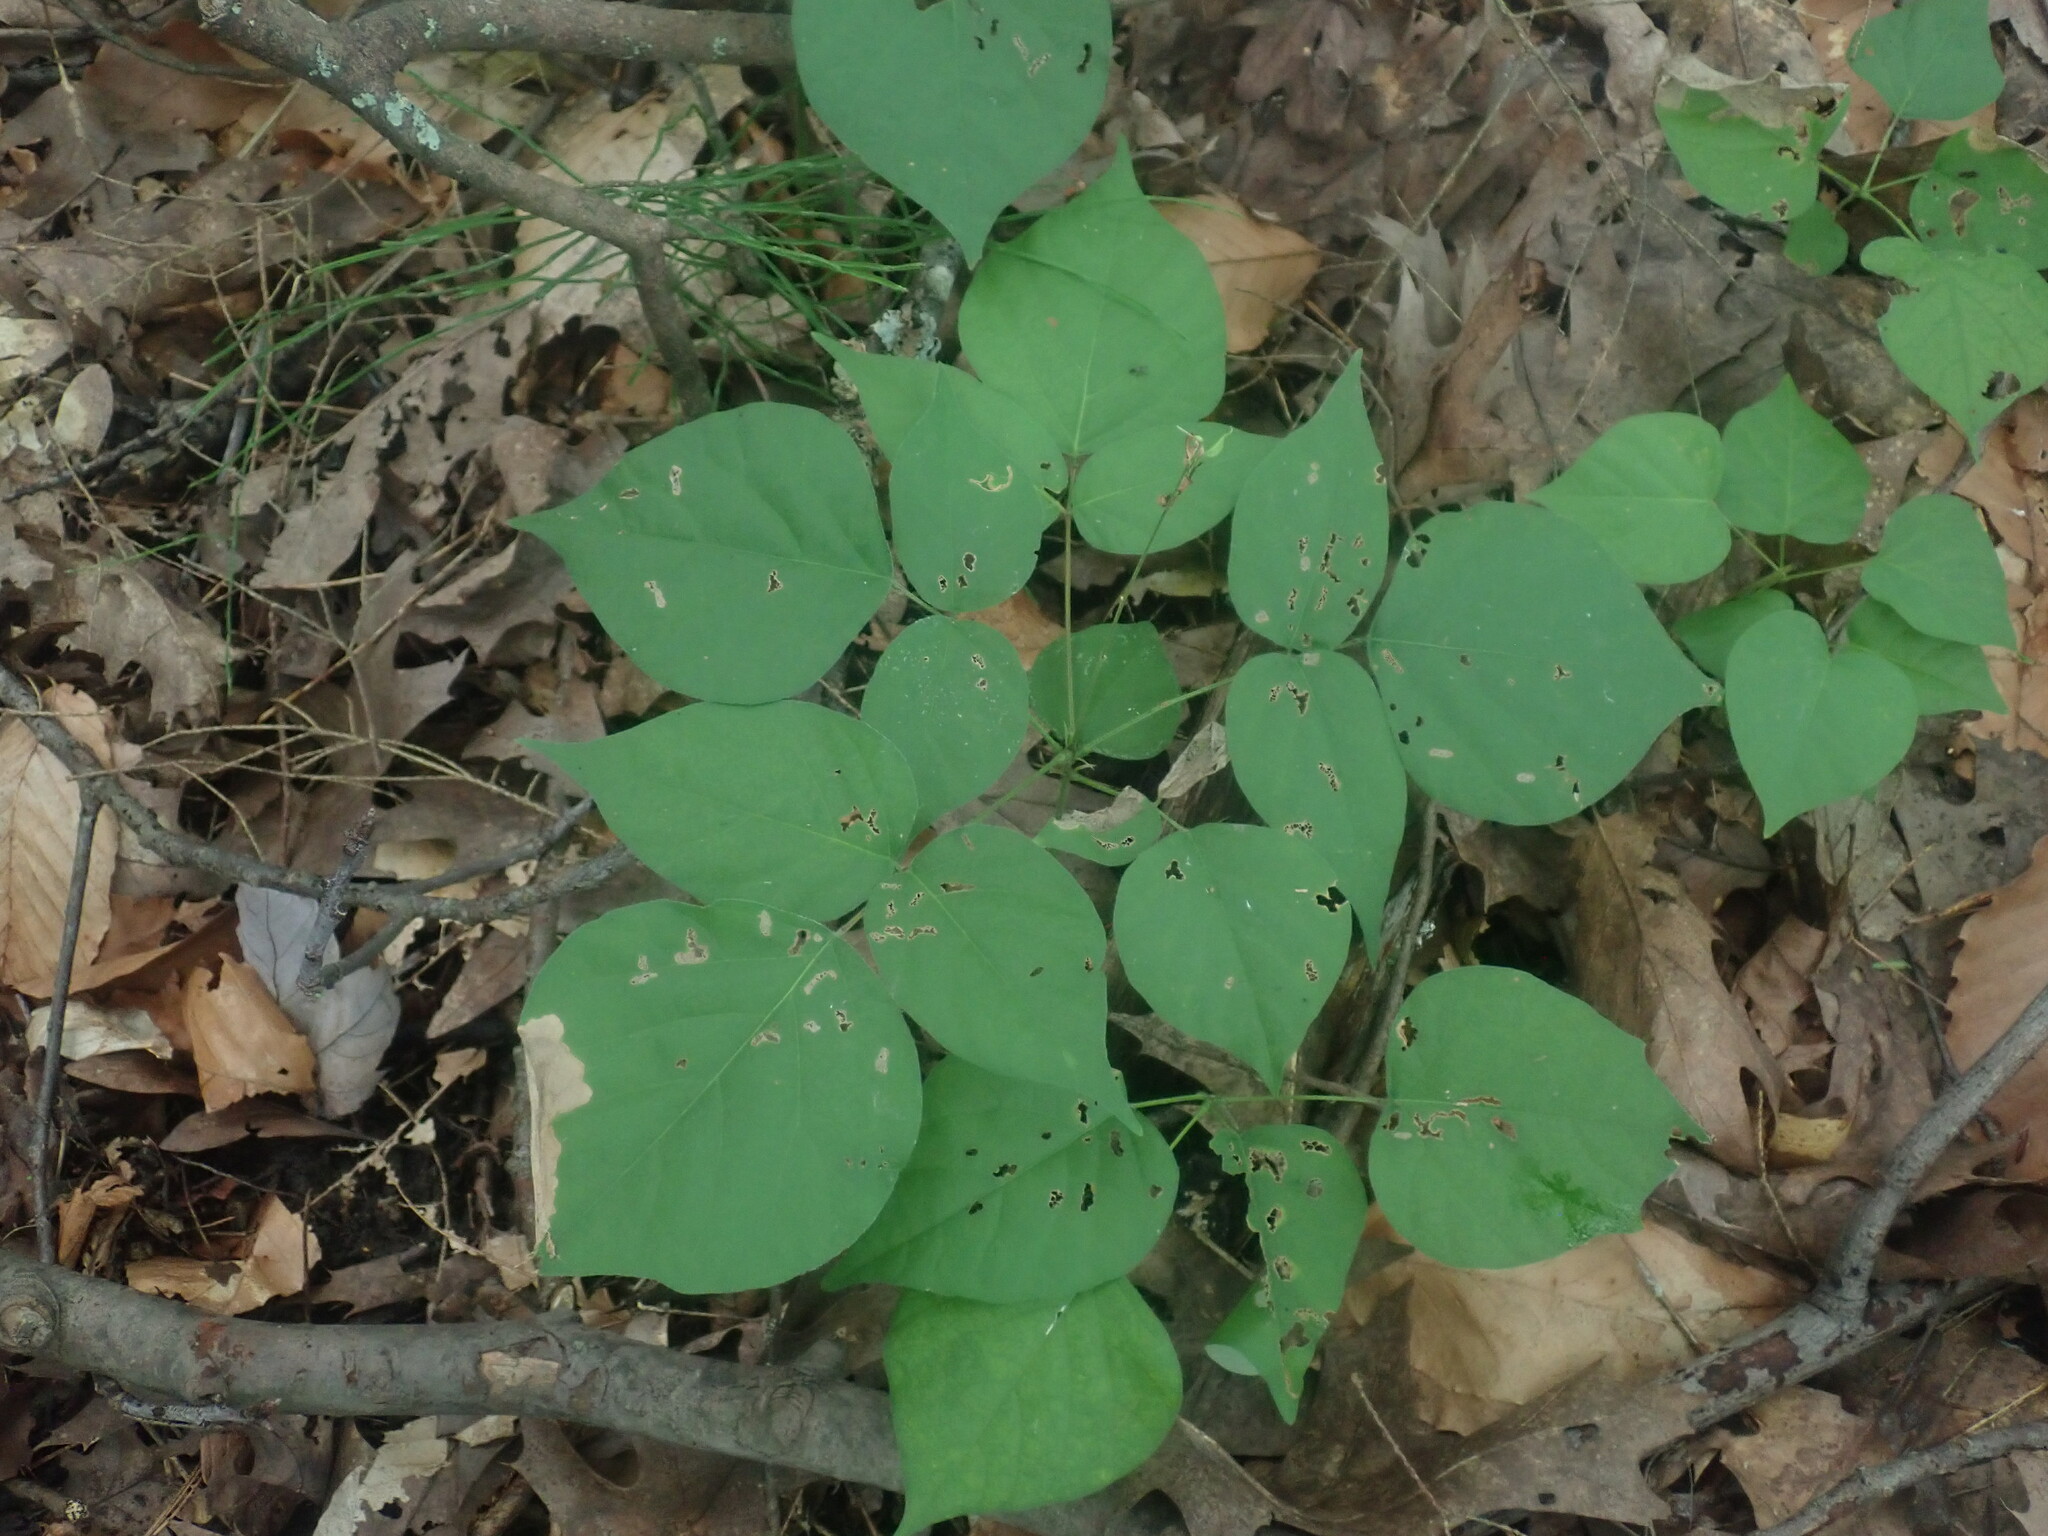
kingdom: Plantae
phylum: Tracheophyta
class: Magnoliopsida
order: Fabales
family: Fabaceae
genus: Hylodesmum
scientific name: Hylodesmum glutinosum
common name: Clustered-leaved tick-trefoil
